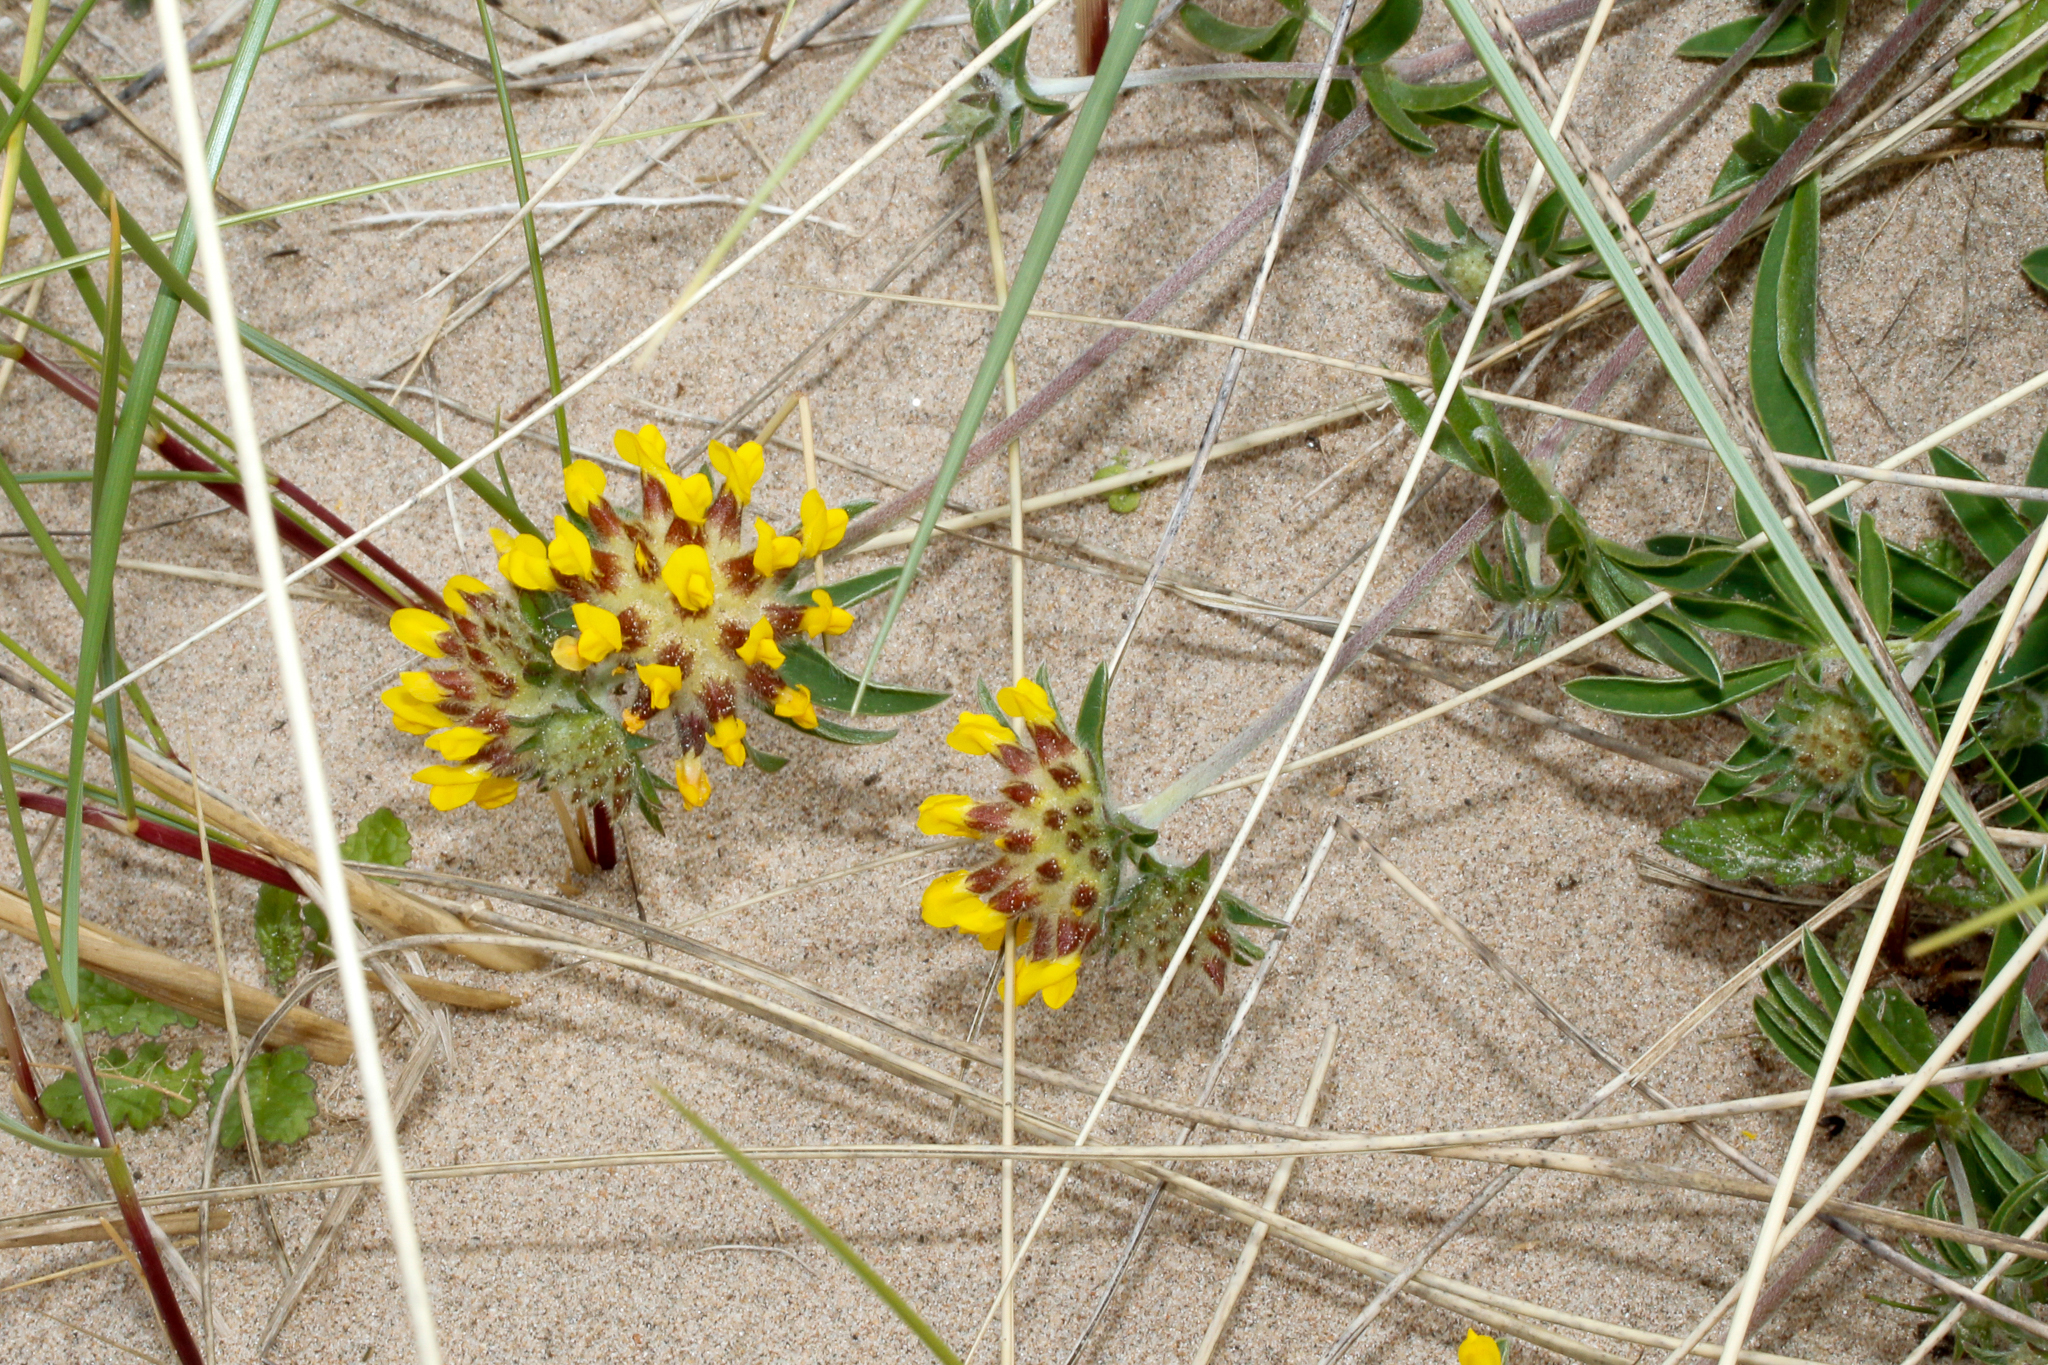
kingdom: Plantae
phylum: Tracheophyta
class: Magnoliopsida
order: Fabales
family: Fabaceae
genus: Anthyllis
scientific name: Anthyllis vulneraria
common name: Kidney vetch
